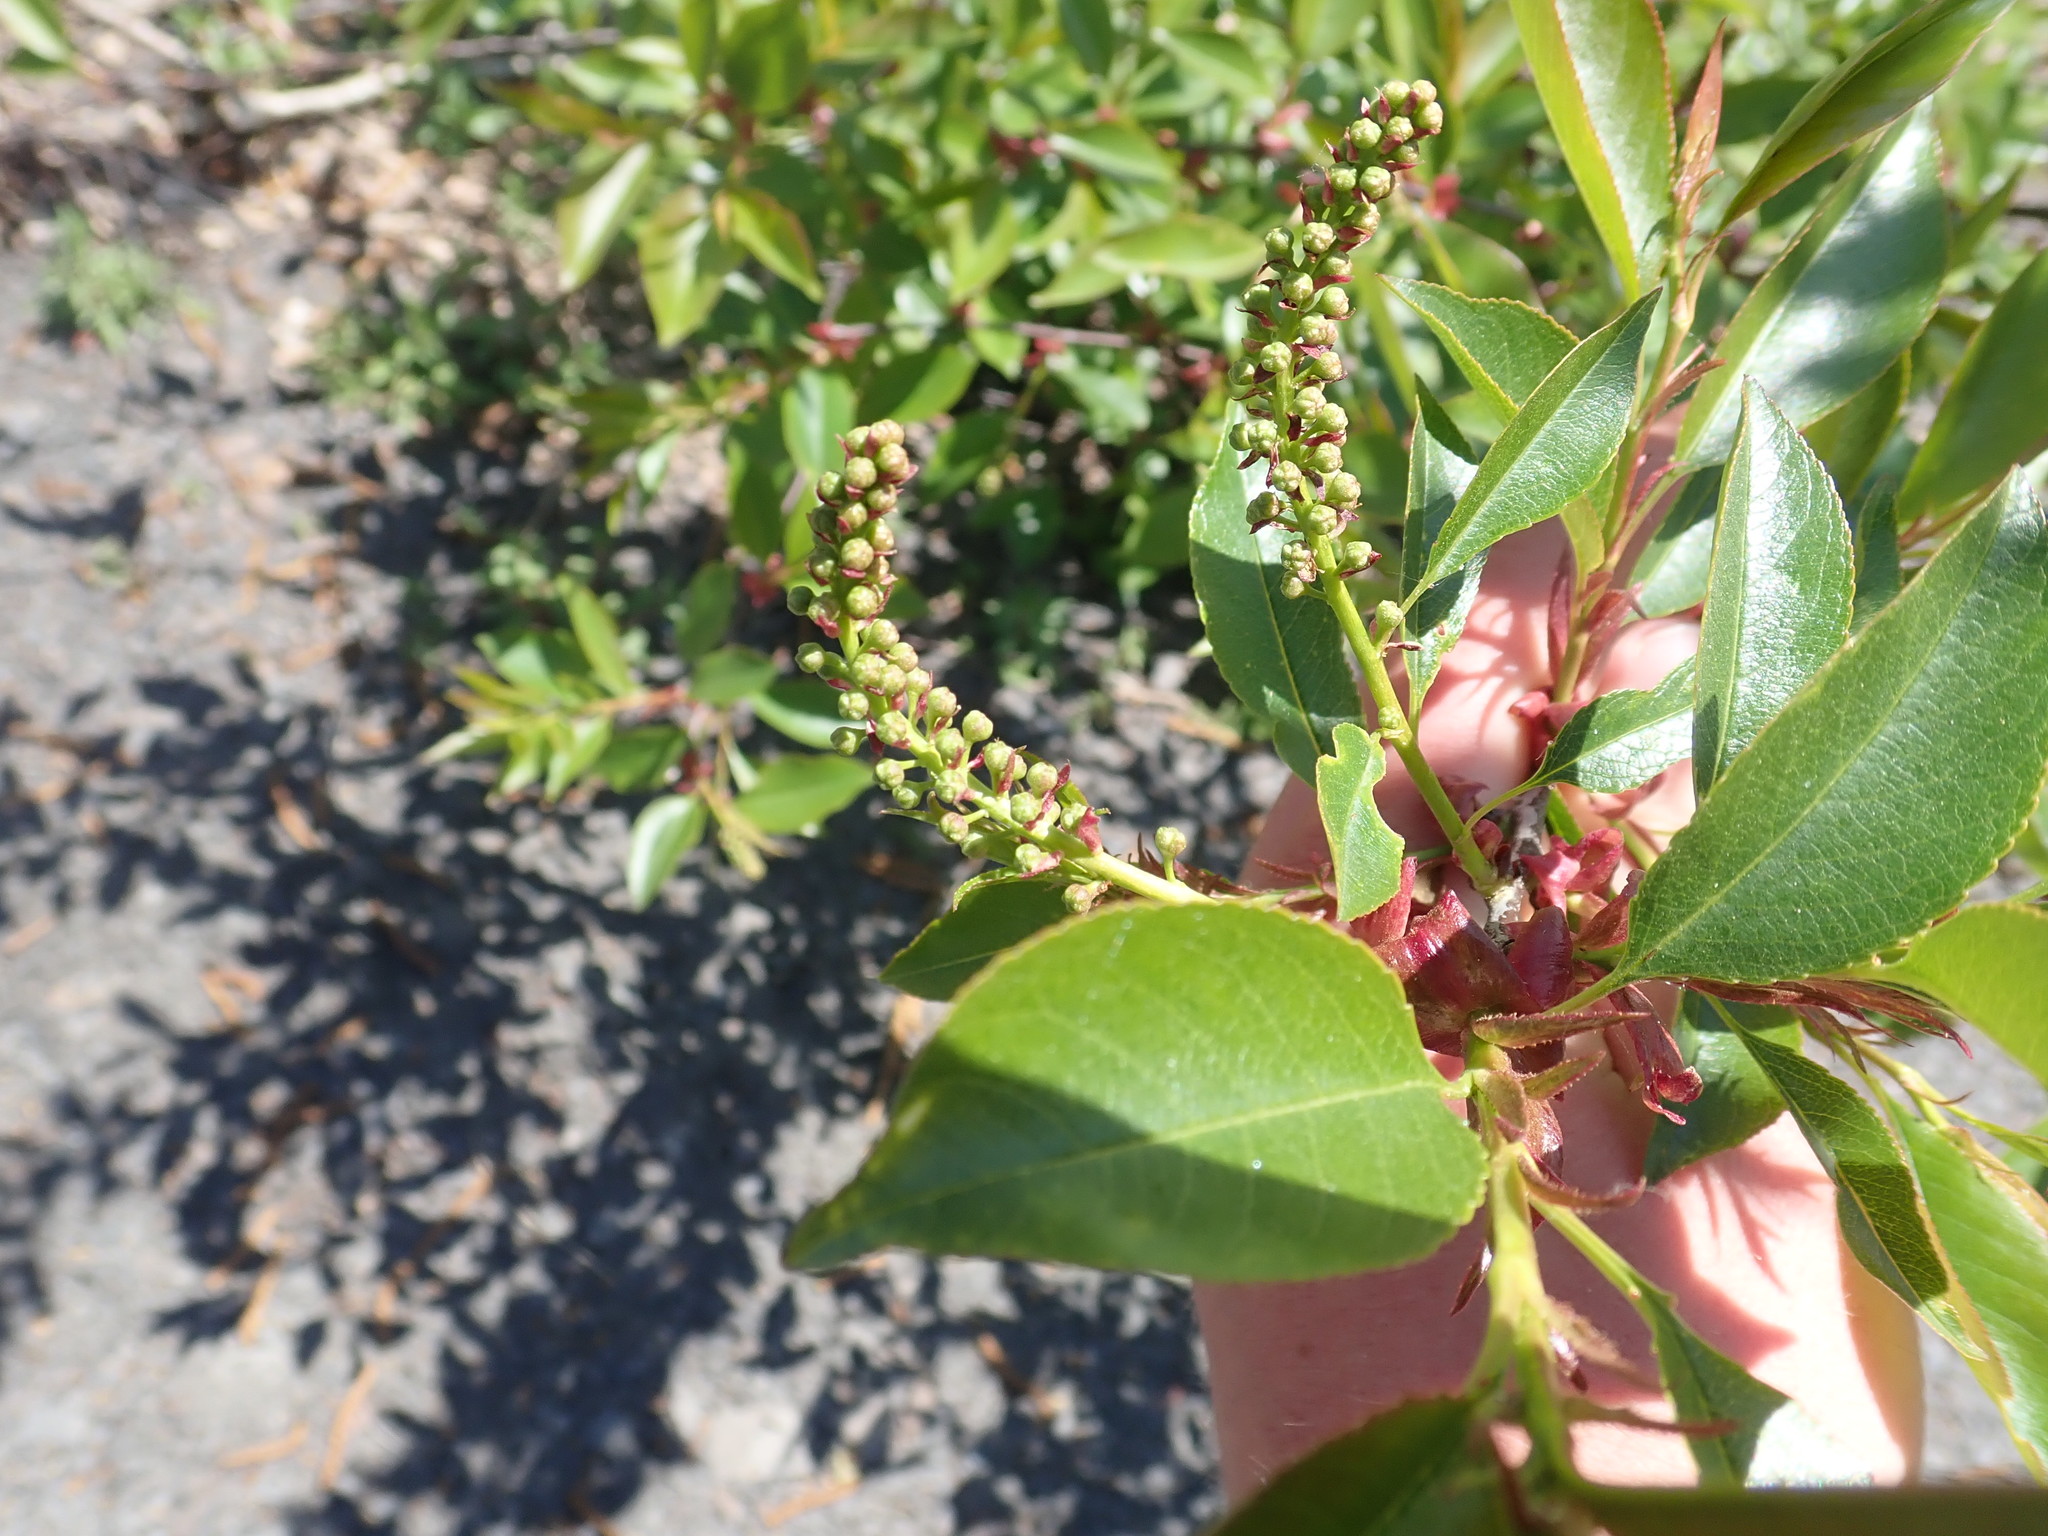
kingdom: Plantae
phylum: Tracheophyta
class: Magnoliopsida
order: Rosales
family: Rosaceae
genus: Prunus
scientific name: Prunus serotina
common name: Black cherry
